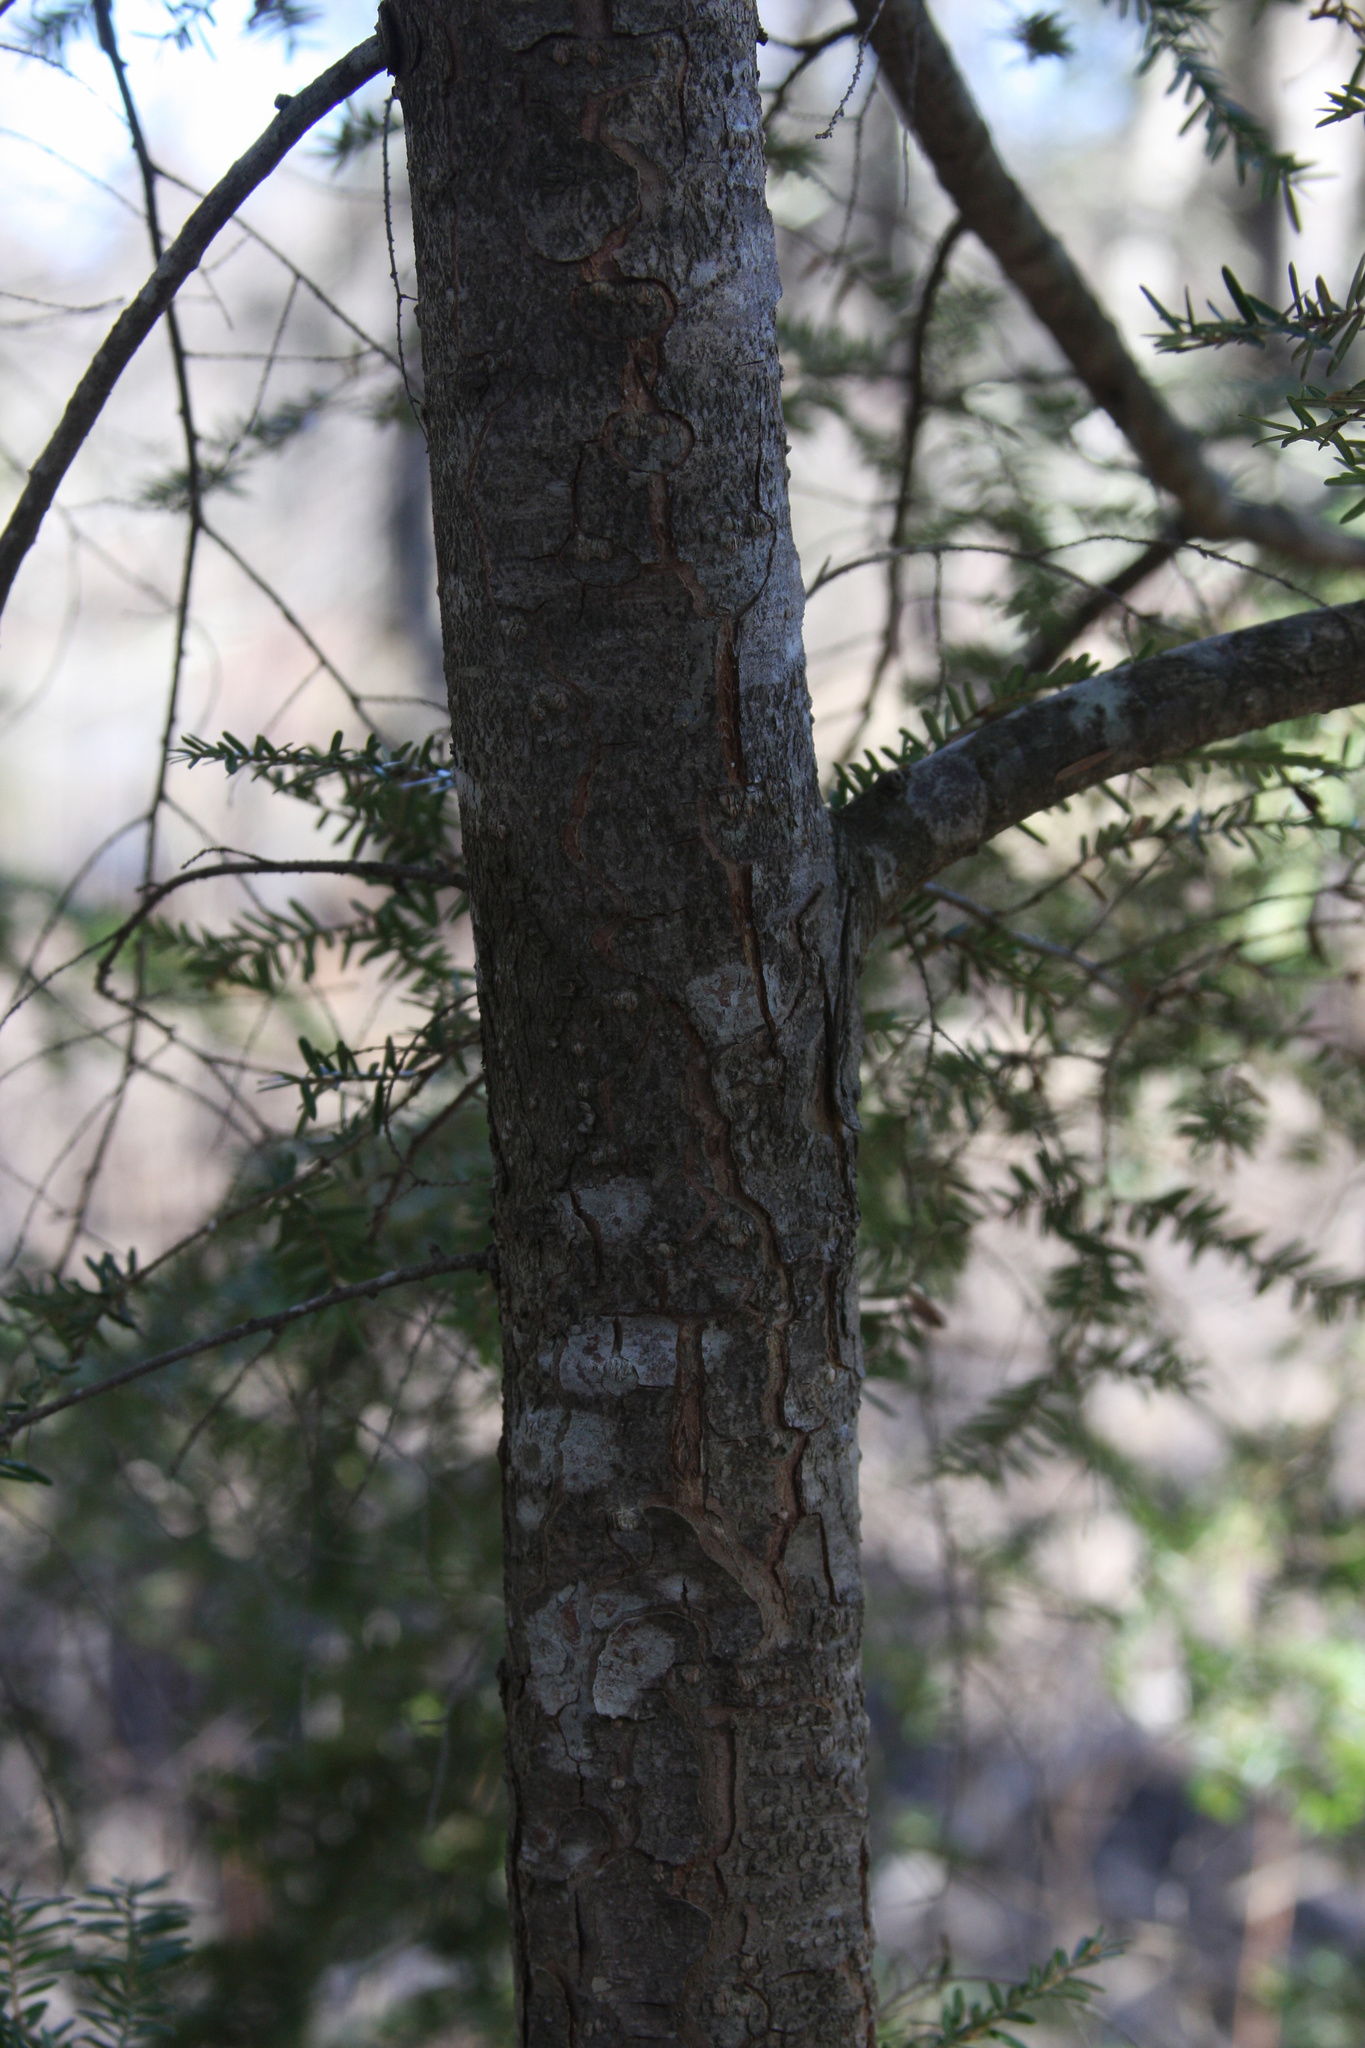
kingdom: Plantae
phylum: Tracheophyta
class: Pinopsida
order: Pinales
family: Pinaceae
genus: Tsuga
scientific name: Tsuga canadensis
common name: Eastern hemlock
